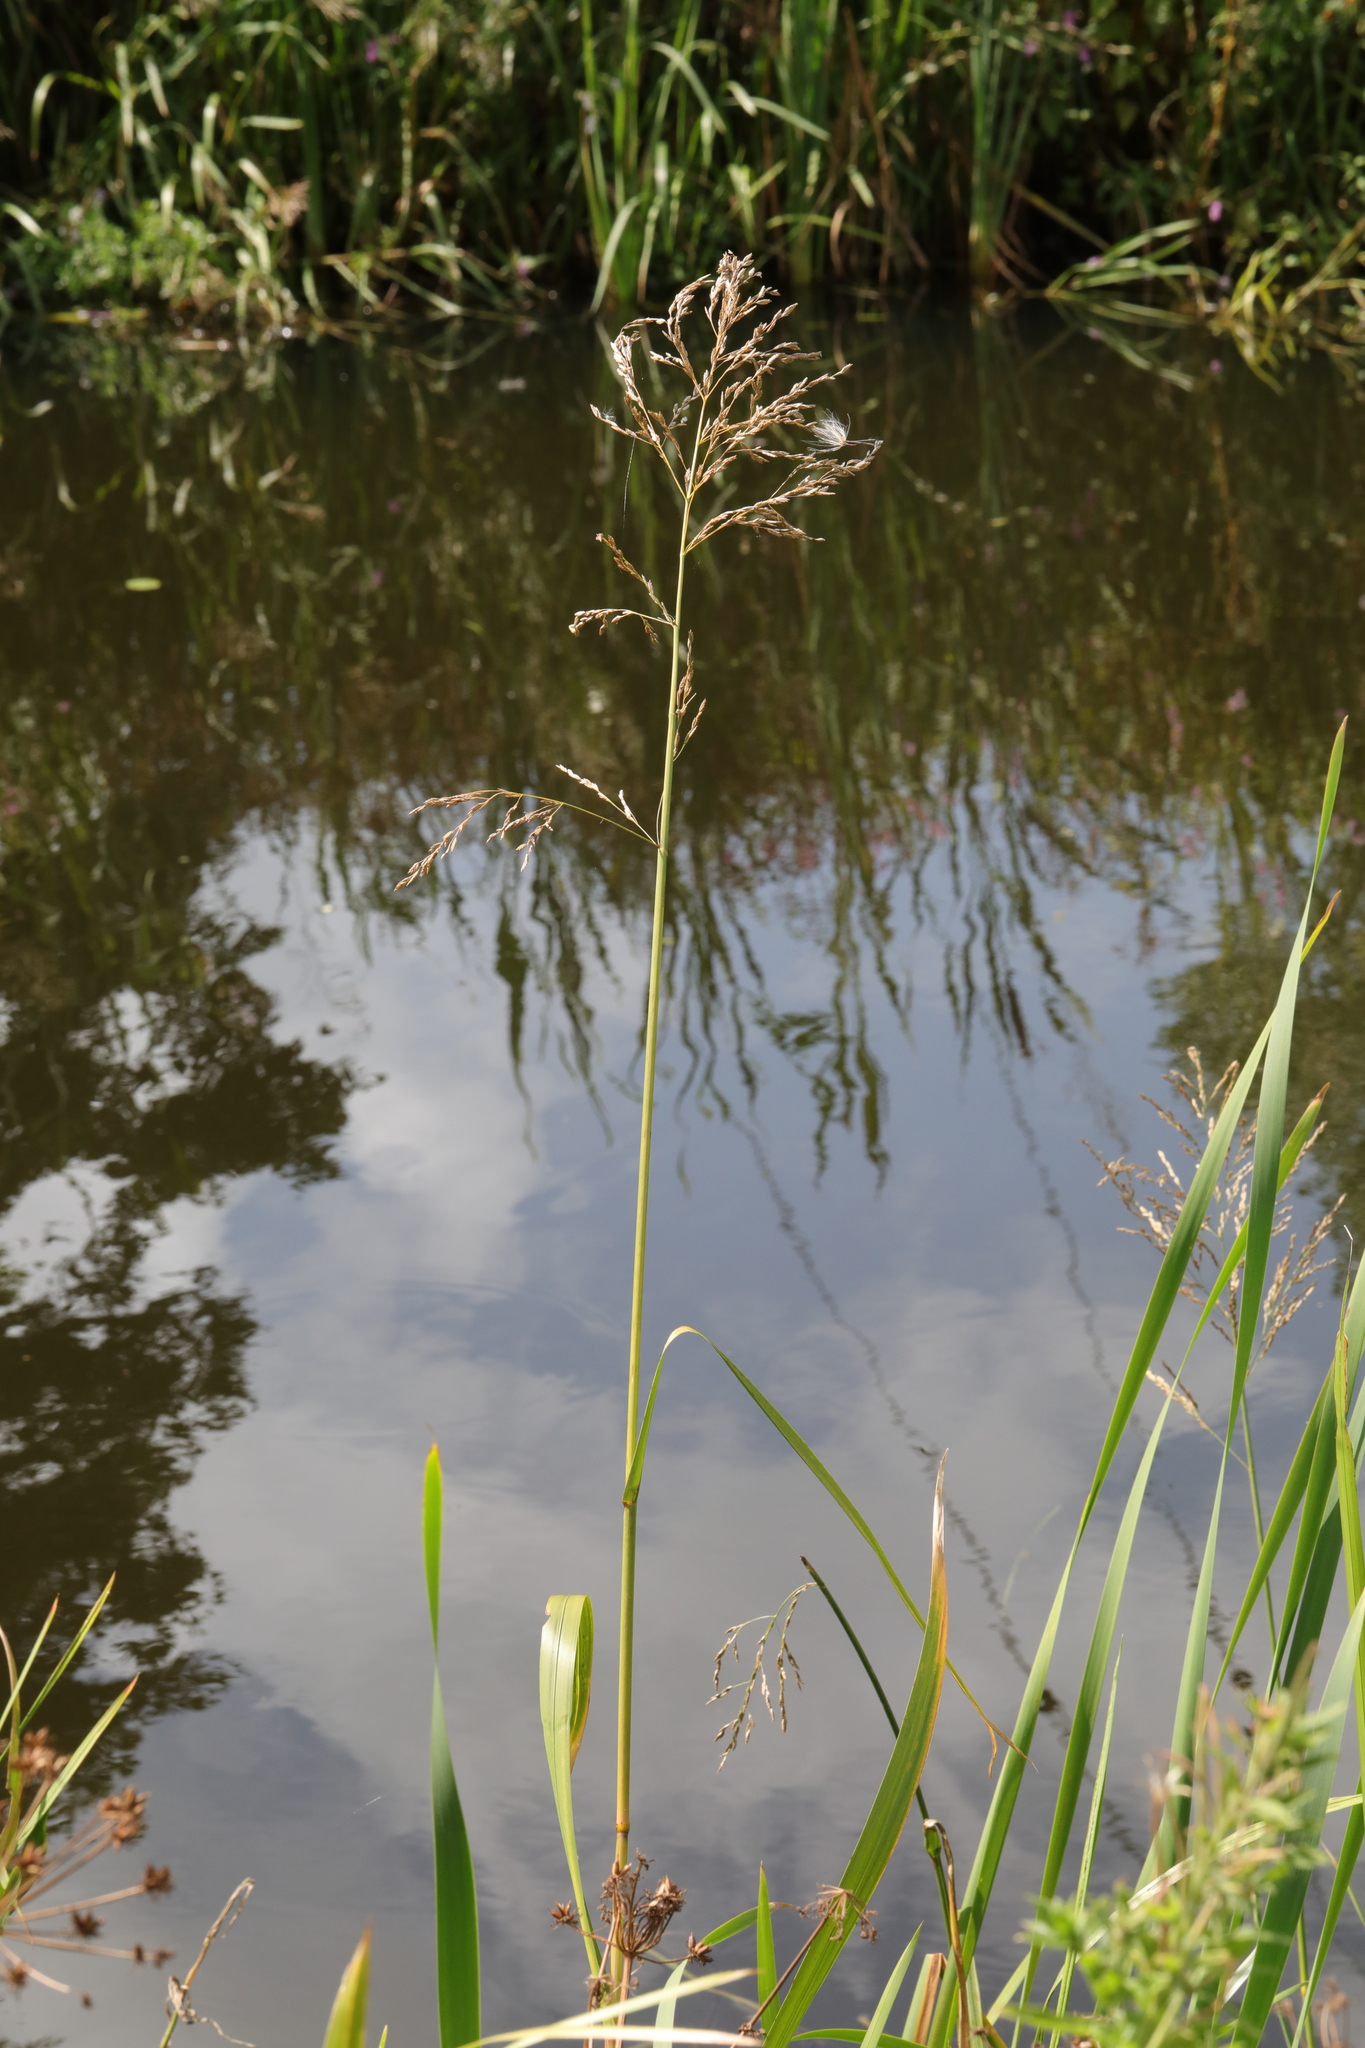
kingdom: Plantae
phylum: Tracheophyta
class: Liliopsida
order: Poales
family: Poaceae
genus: Glyceria
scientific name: Glyceria maxima
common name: Reed mannagrass
